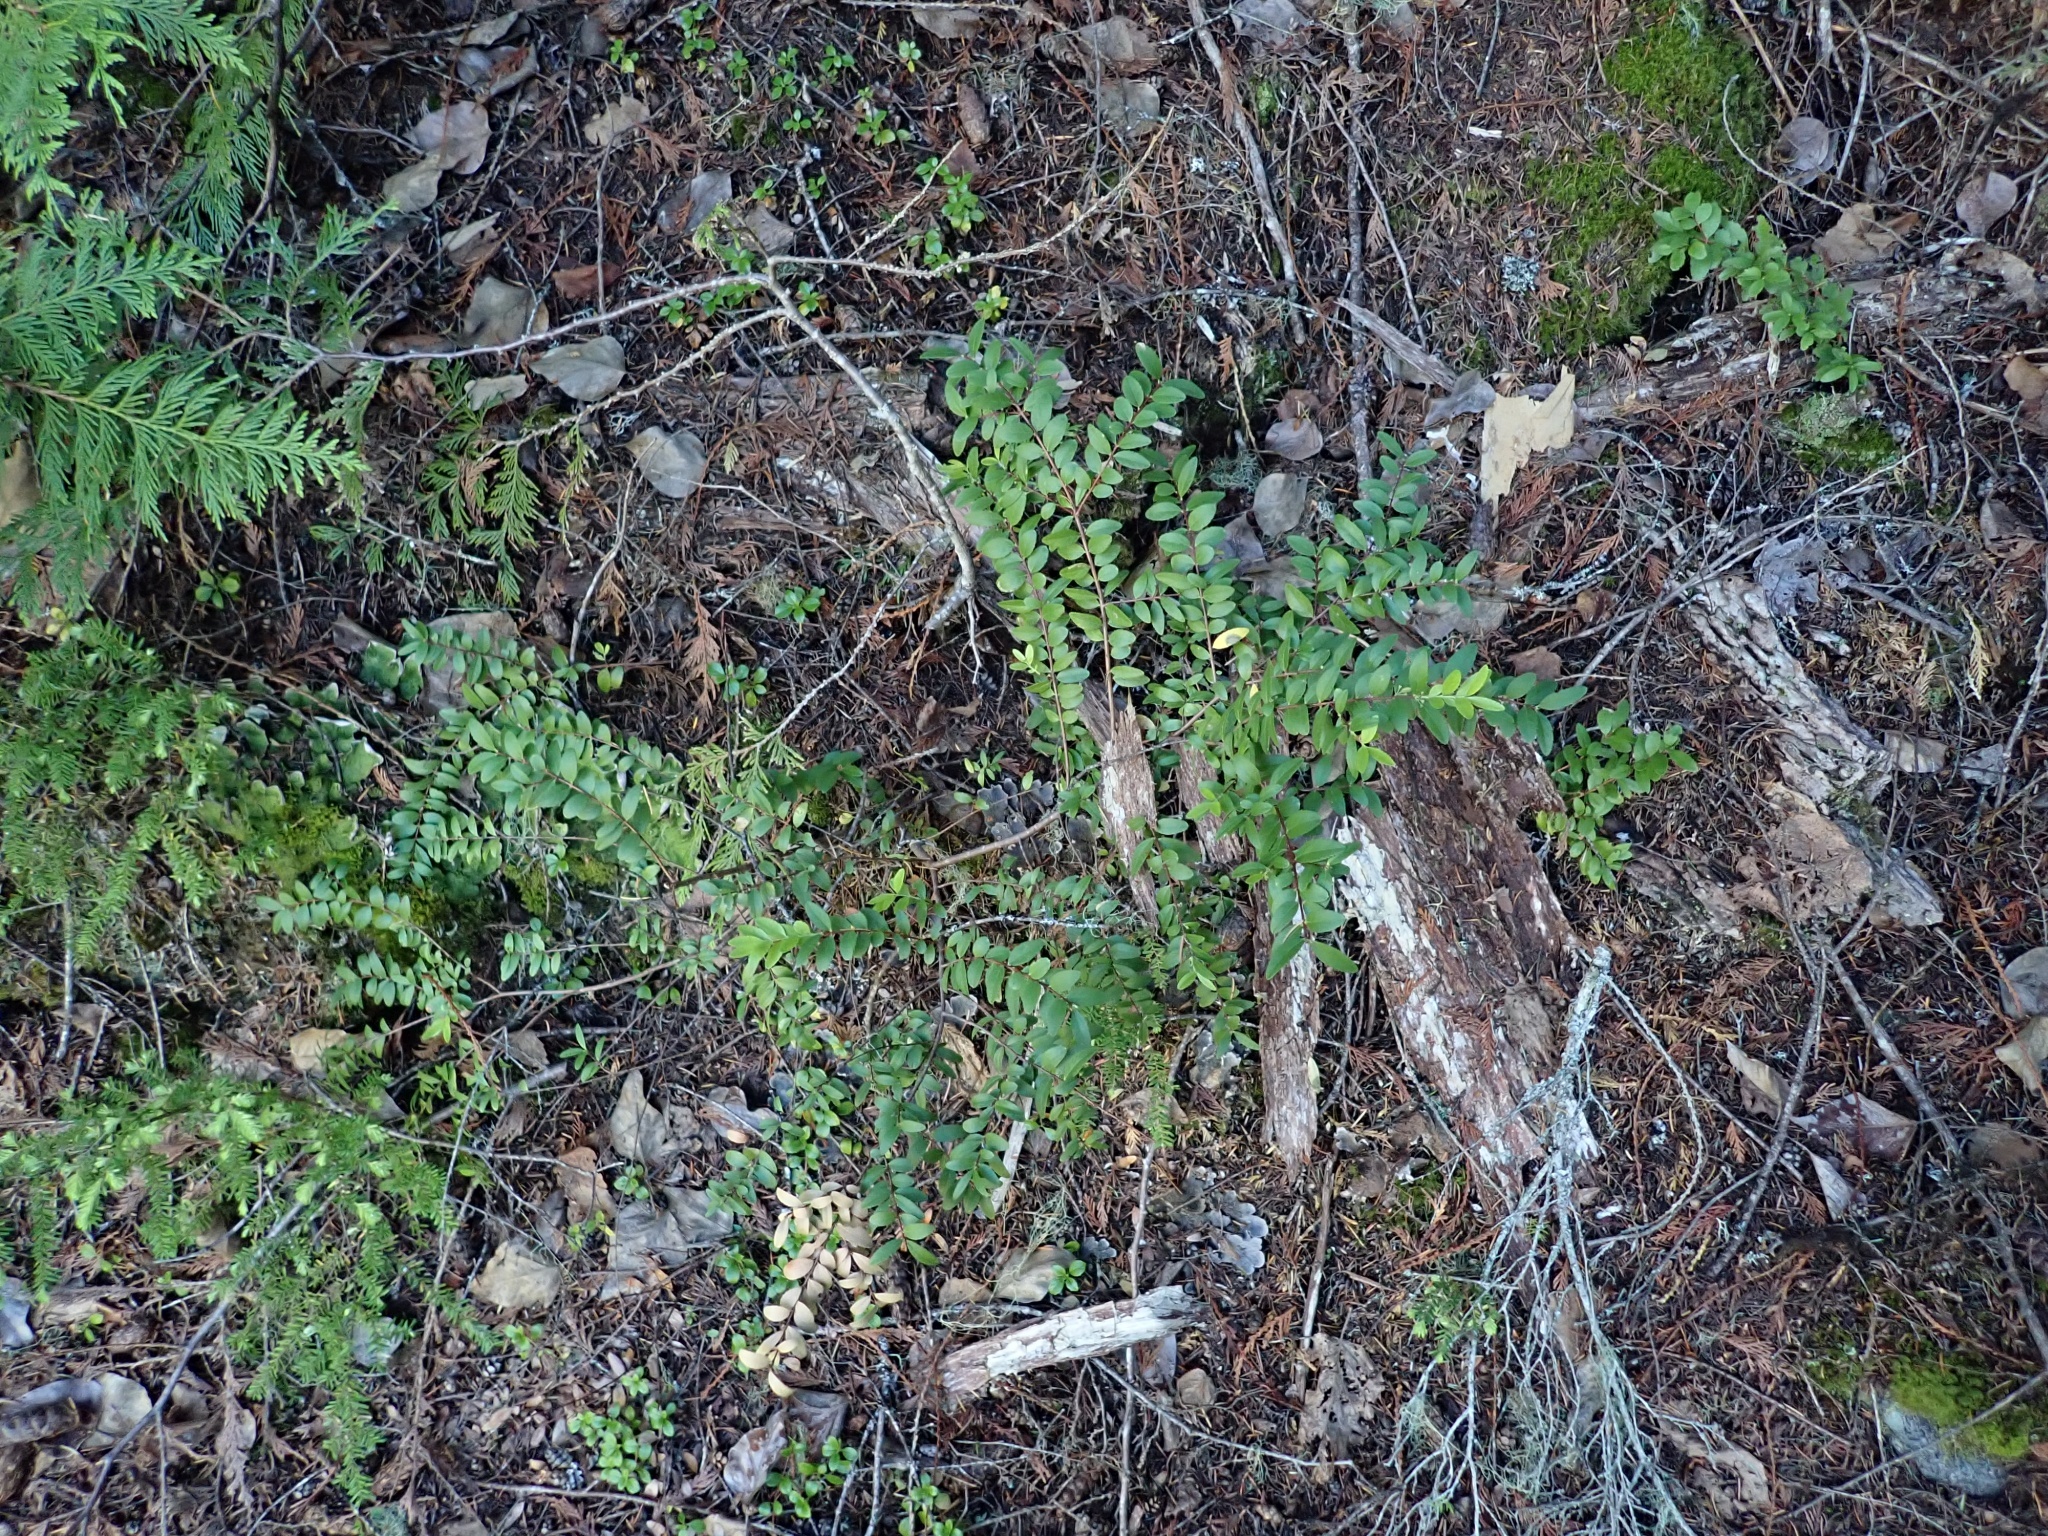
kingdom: Plantae
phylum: Tracheophyta
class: Magnoliopsida
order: Celastrales
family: Celastraceae
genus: Paxistima
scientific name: Paxistima myrsinites
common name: Mountain-lover
